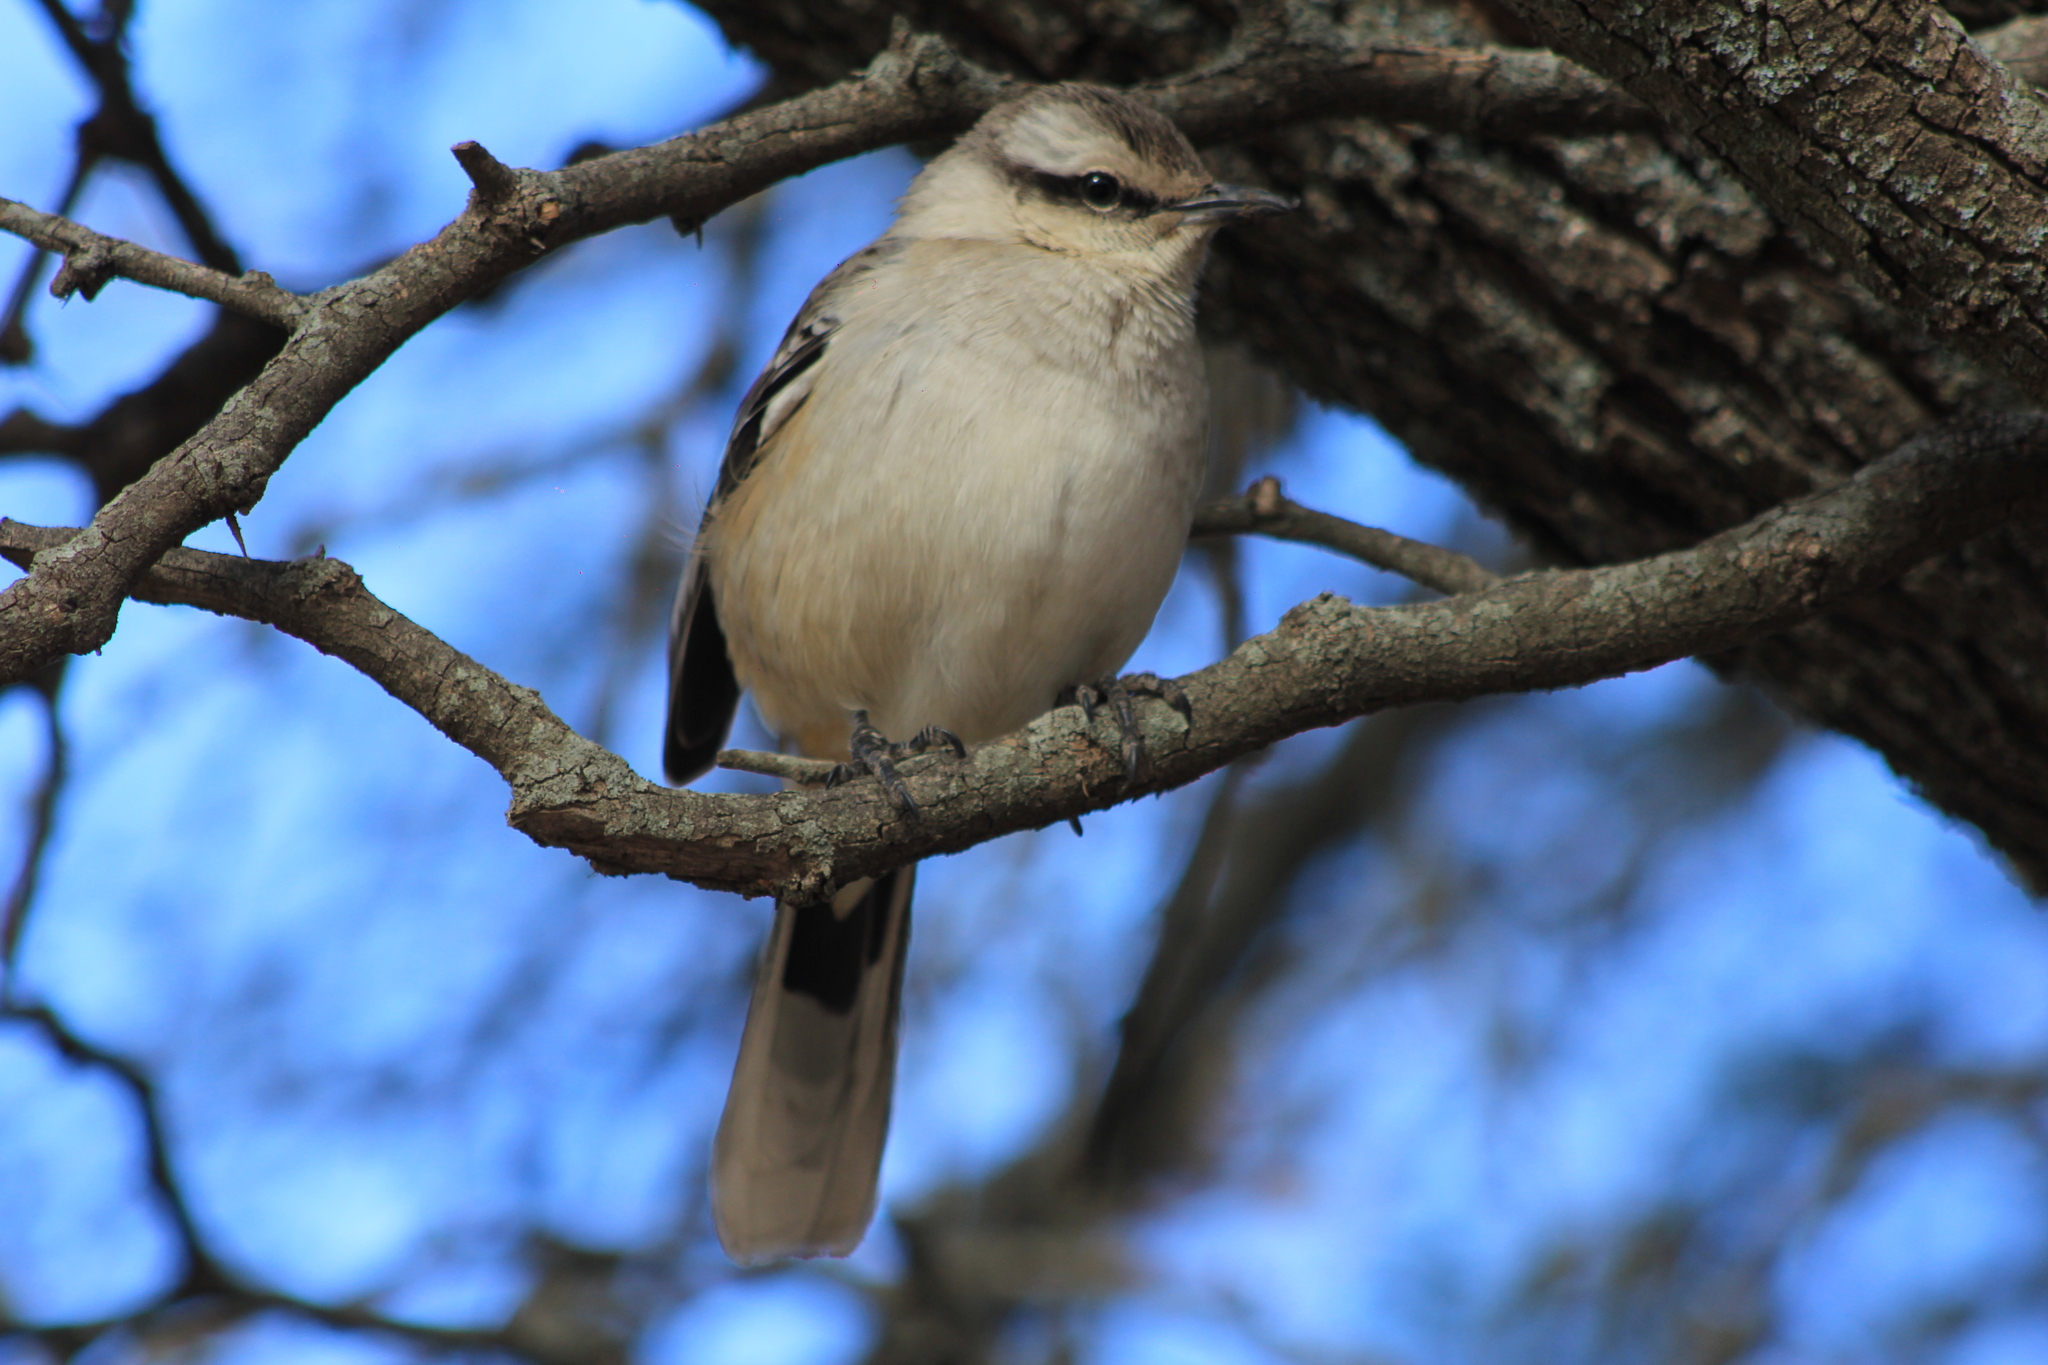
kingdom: Animalia
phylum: Chordata
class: Aves
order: Passeriformes
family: Mimidae
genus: Mimus
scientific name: Mimus saturninus
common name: Chalk-browed mockingbird
